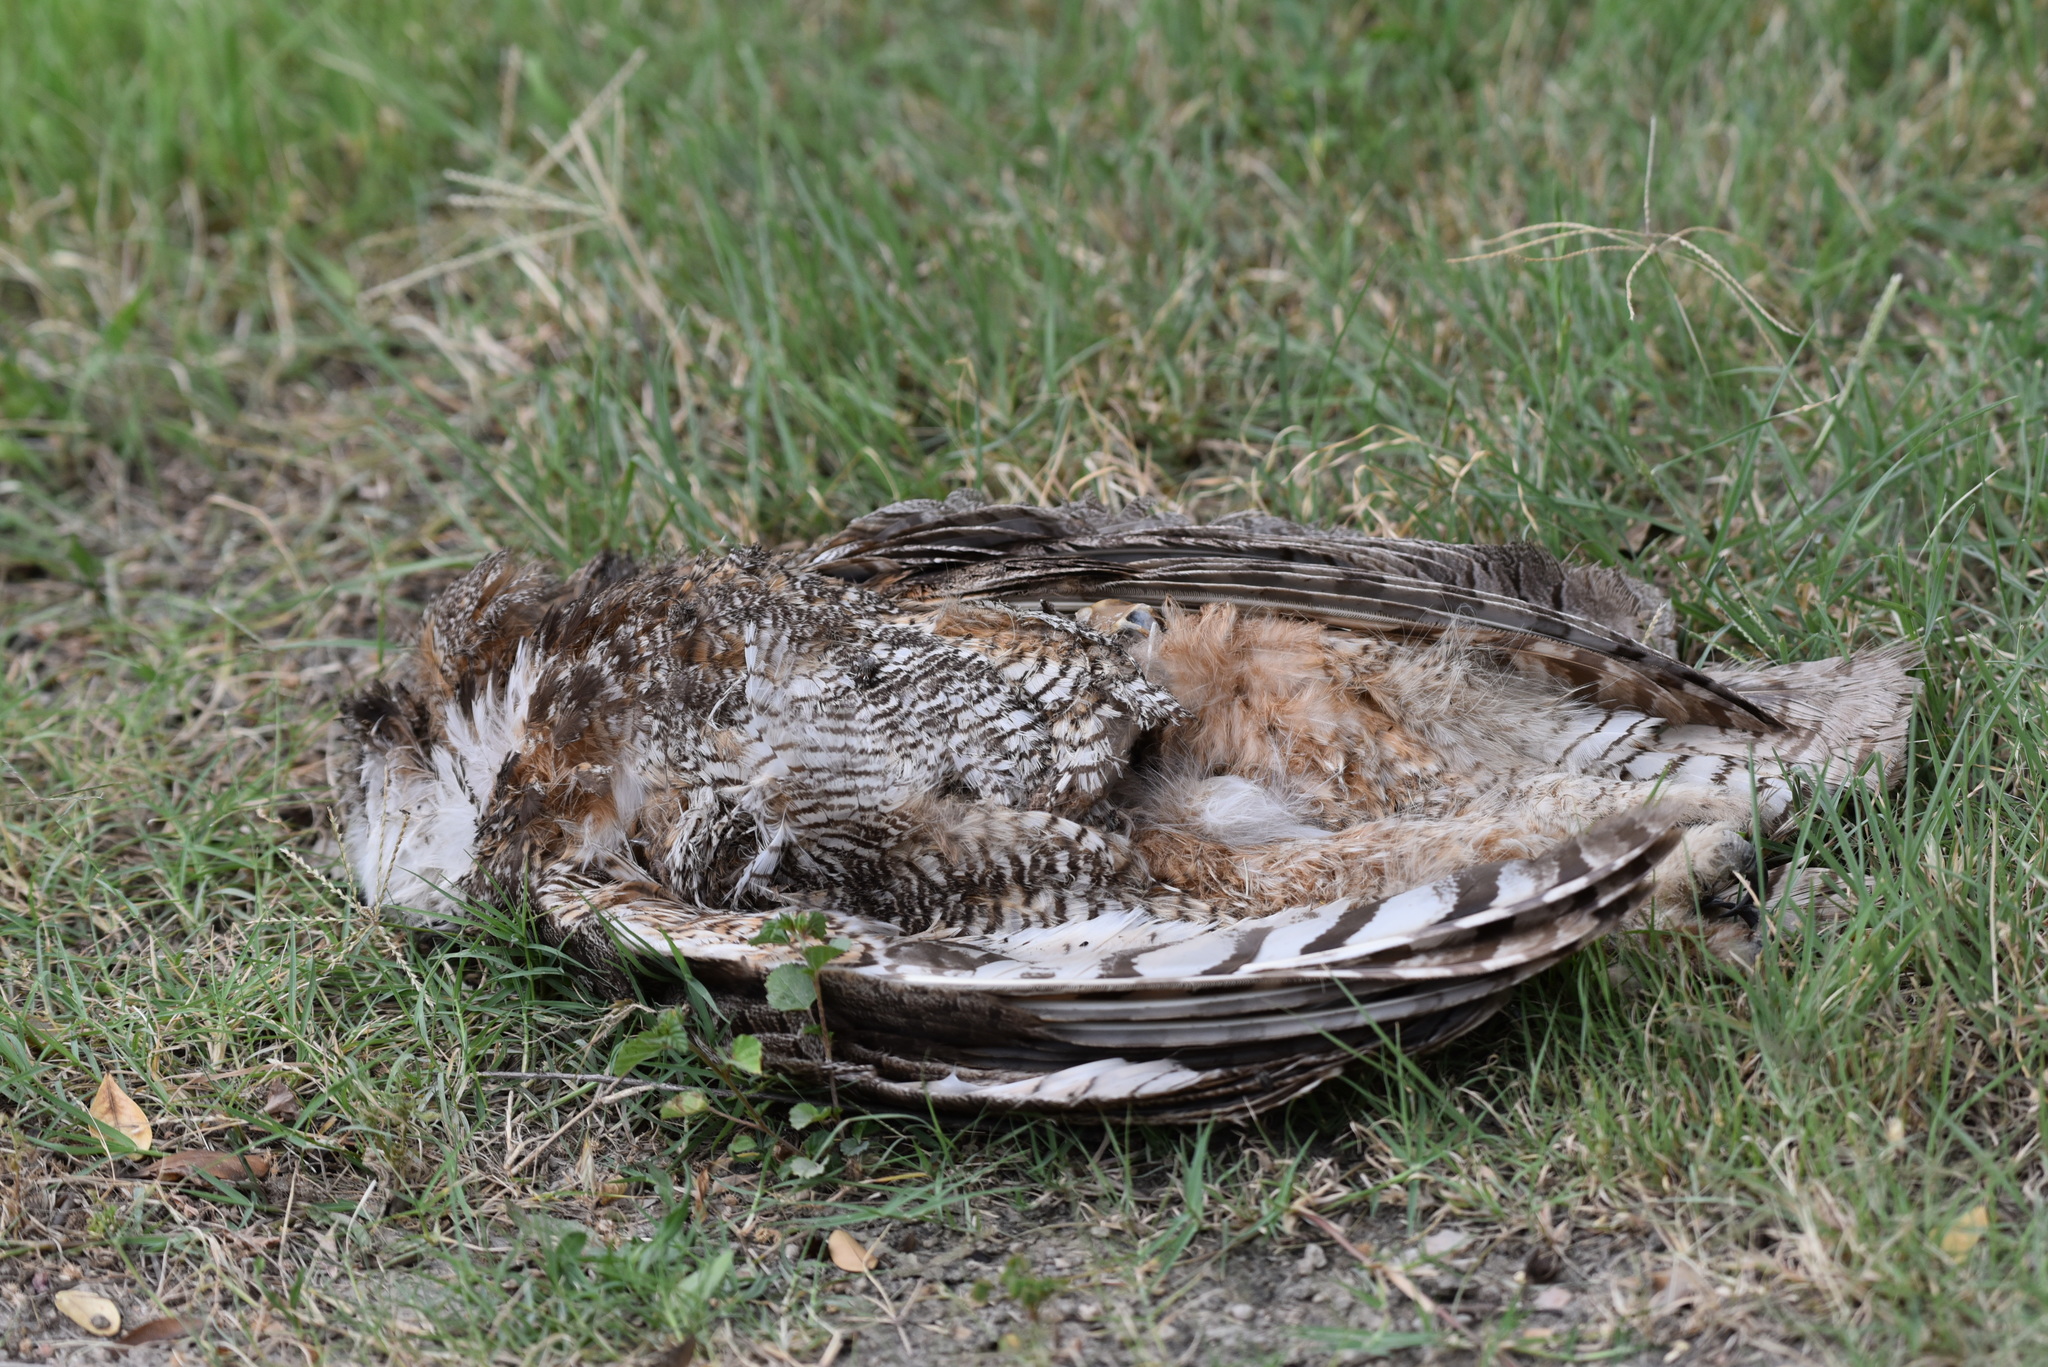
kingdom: Animalia
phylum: Chordata
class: Aves
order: Strigiformes
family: Strigidae
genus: Bubo
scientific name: Bubo virginianus
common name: Great horned owl
